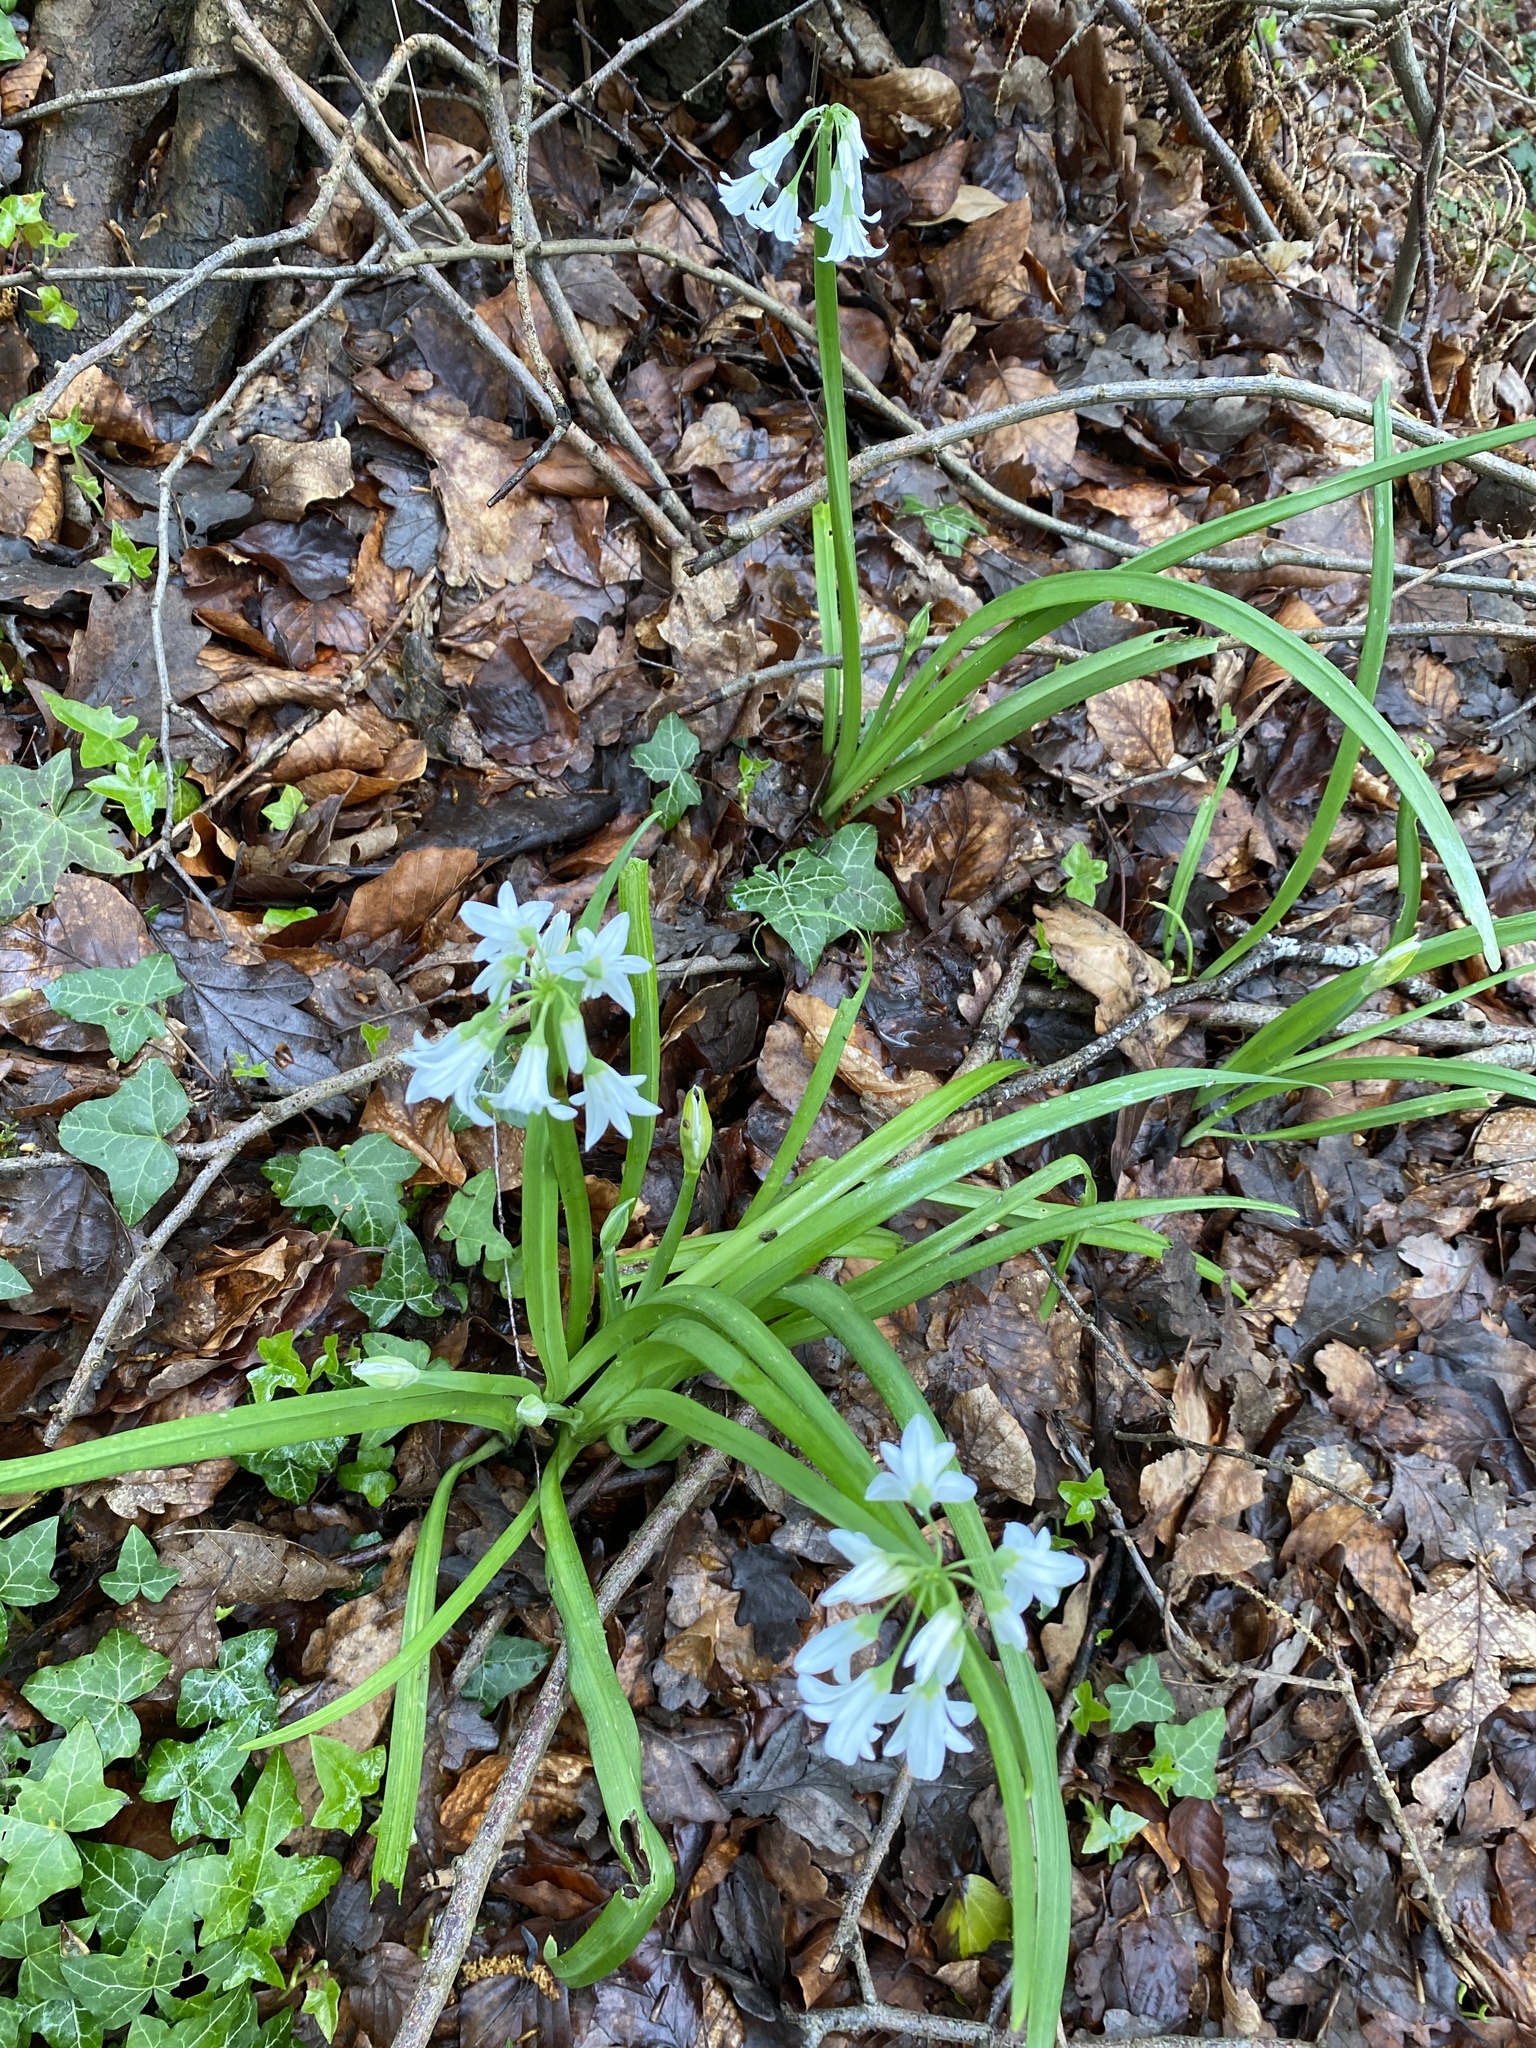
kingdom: Plantae
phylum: Tracheophyta
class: Liliopsida
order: Asparagales
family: Amaryllidaceae
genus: Allium
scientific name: Allium triquetrum
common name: Three-cornered garlic
